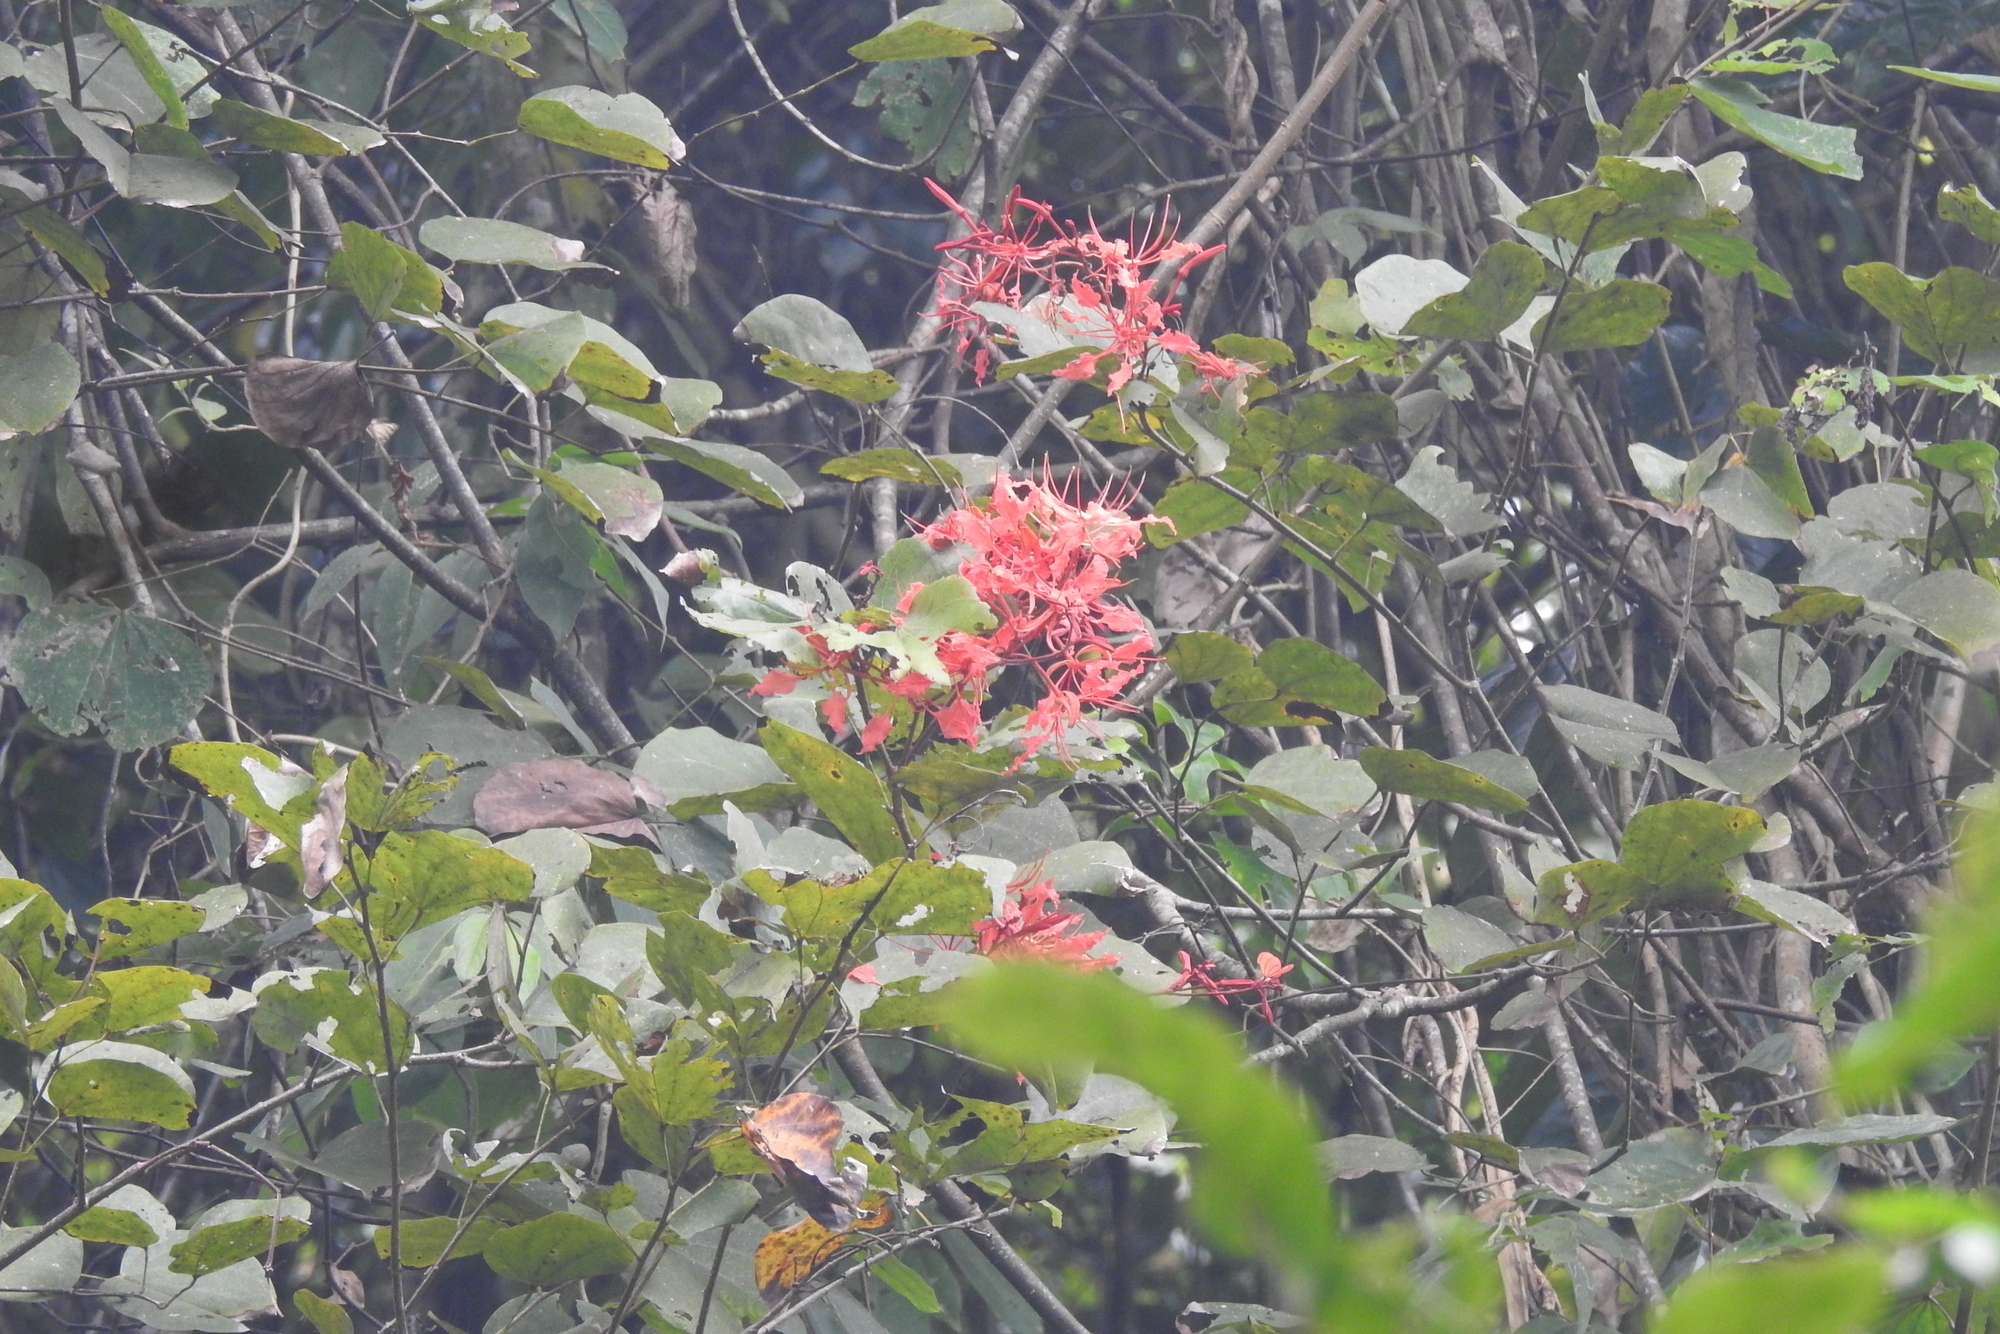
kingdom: Plantae
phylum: Tracheophyta
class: Magnoliopsida
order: Fabales
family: Fabaceae
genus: Bauhinia
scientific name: Bauhinia phoenicea
